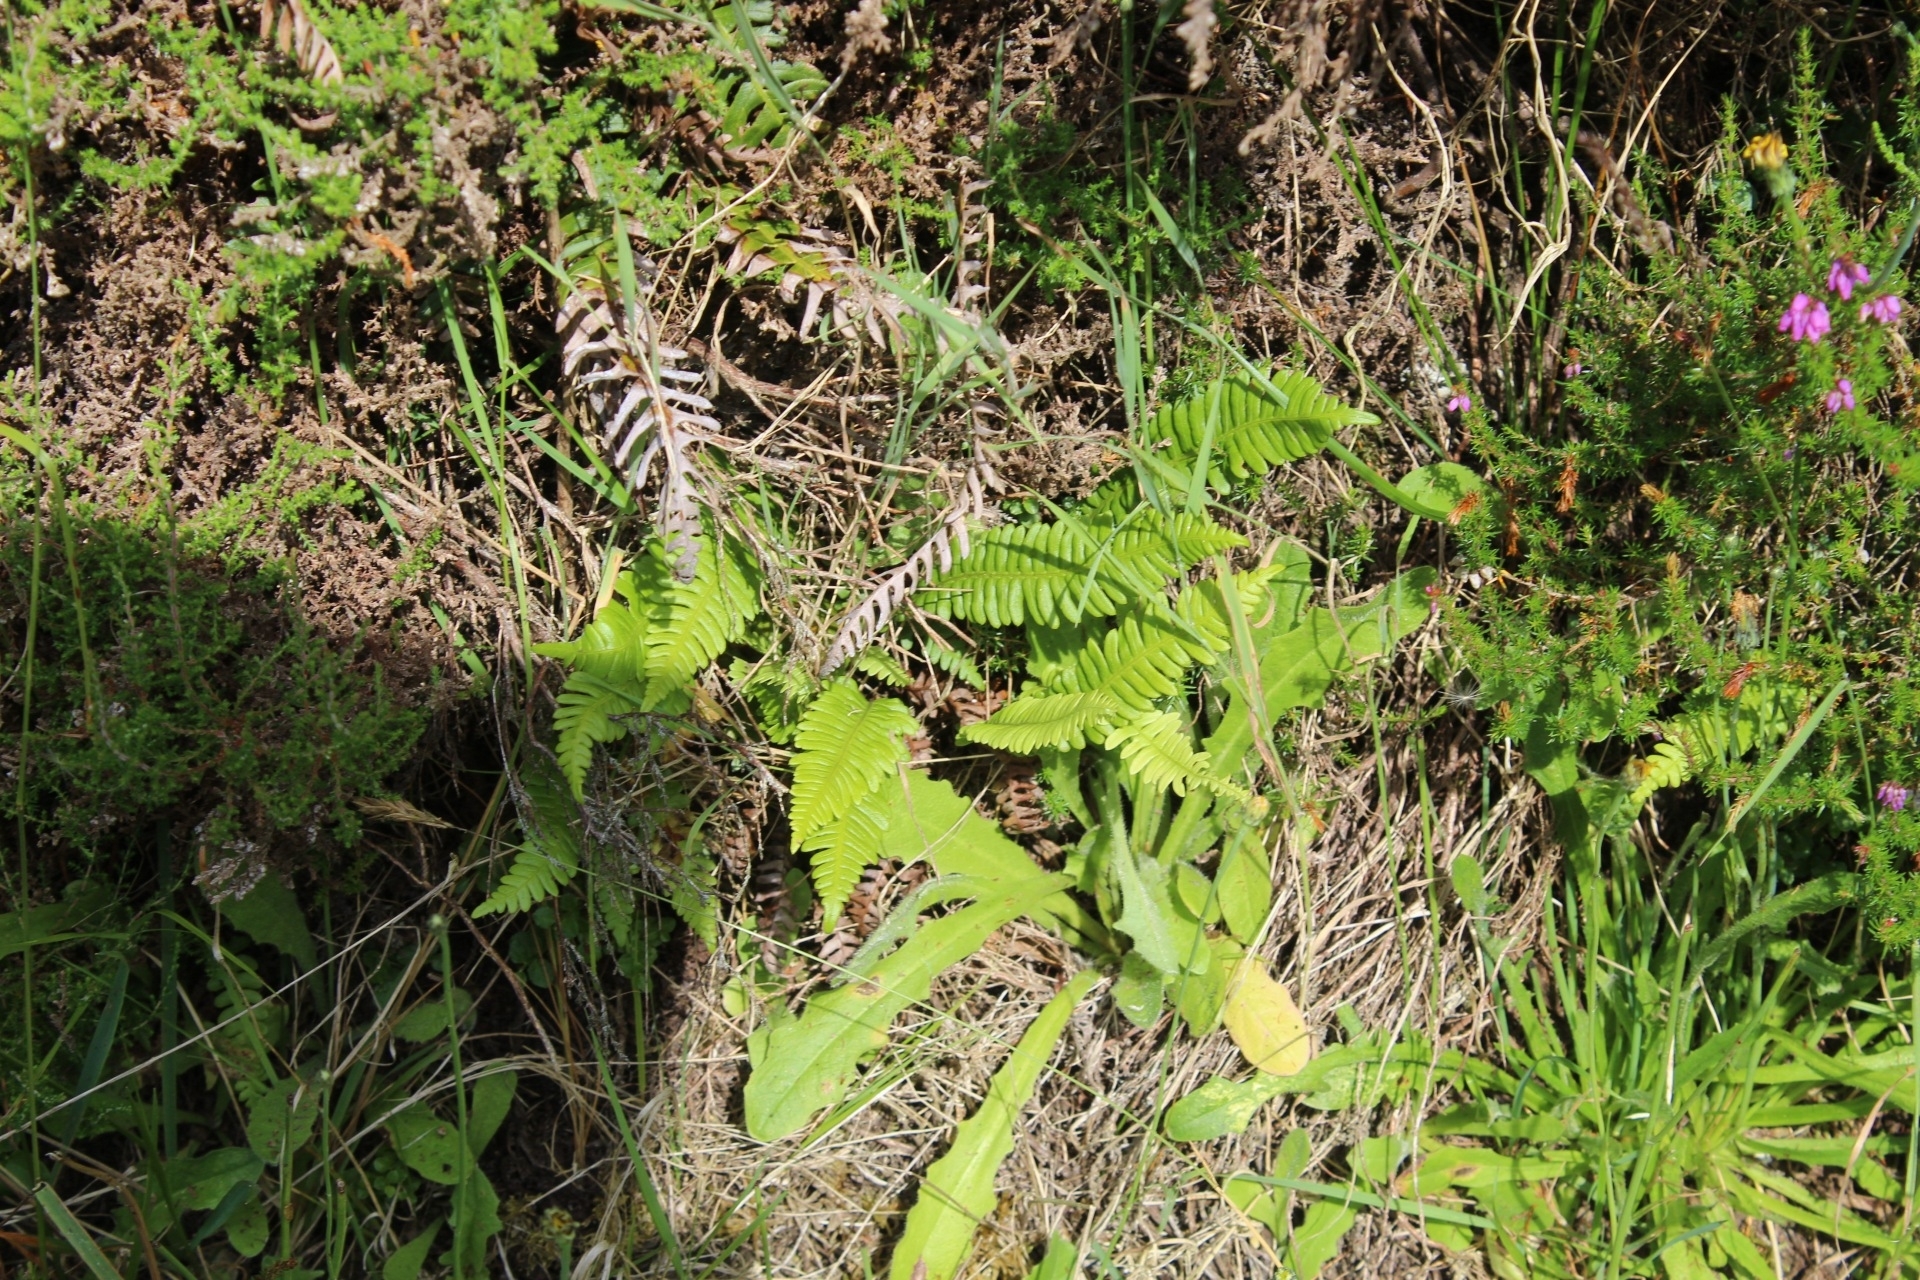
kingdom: Plantae
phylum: Tracheophyta
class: Polypodiopsida
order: Polypodiales
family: Blechnaceae
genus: Struthiopteris
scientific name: Struthiopteris spicant
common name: Deer fern
